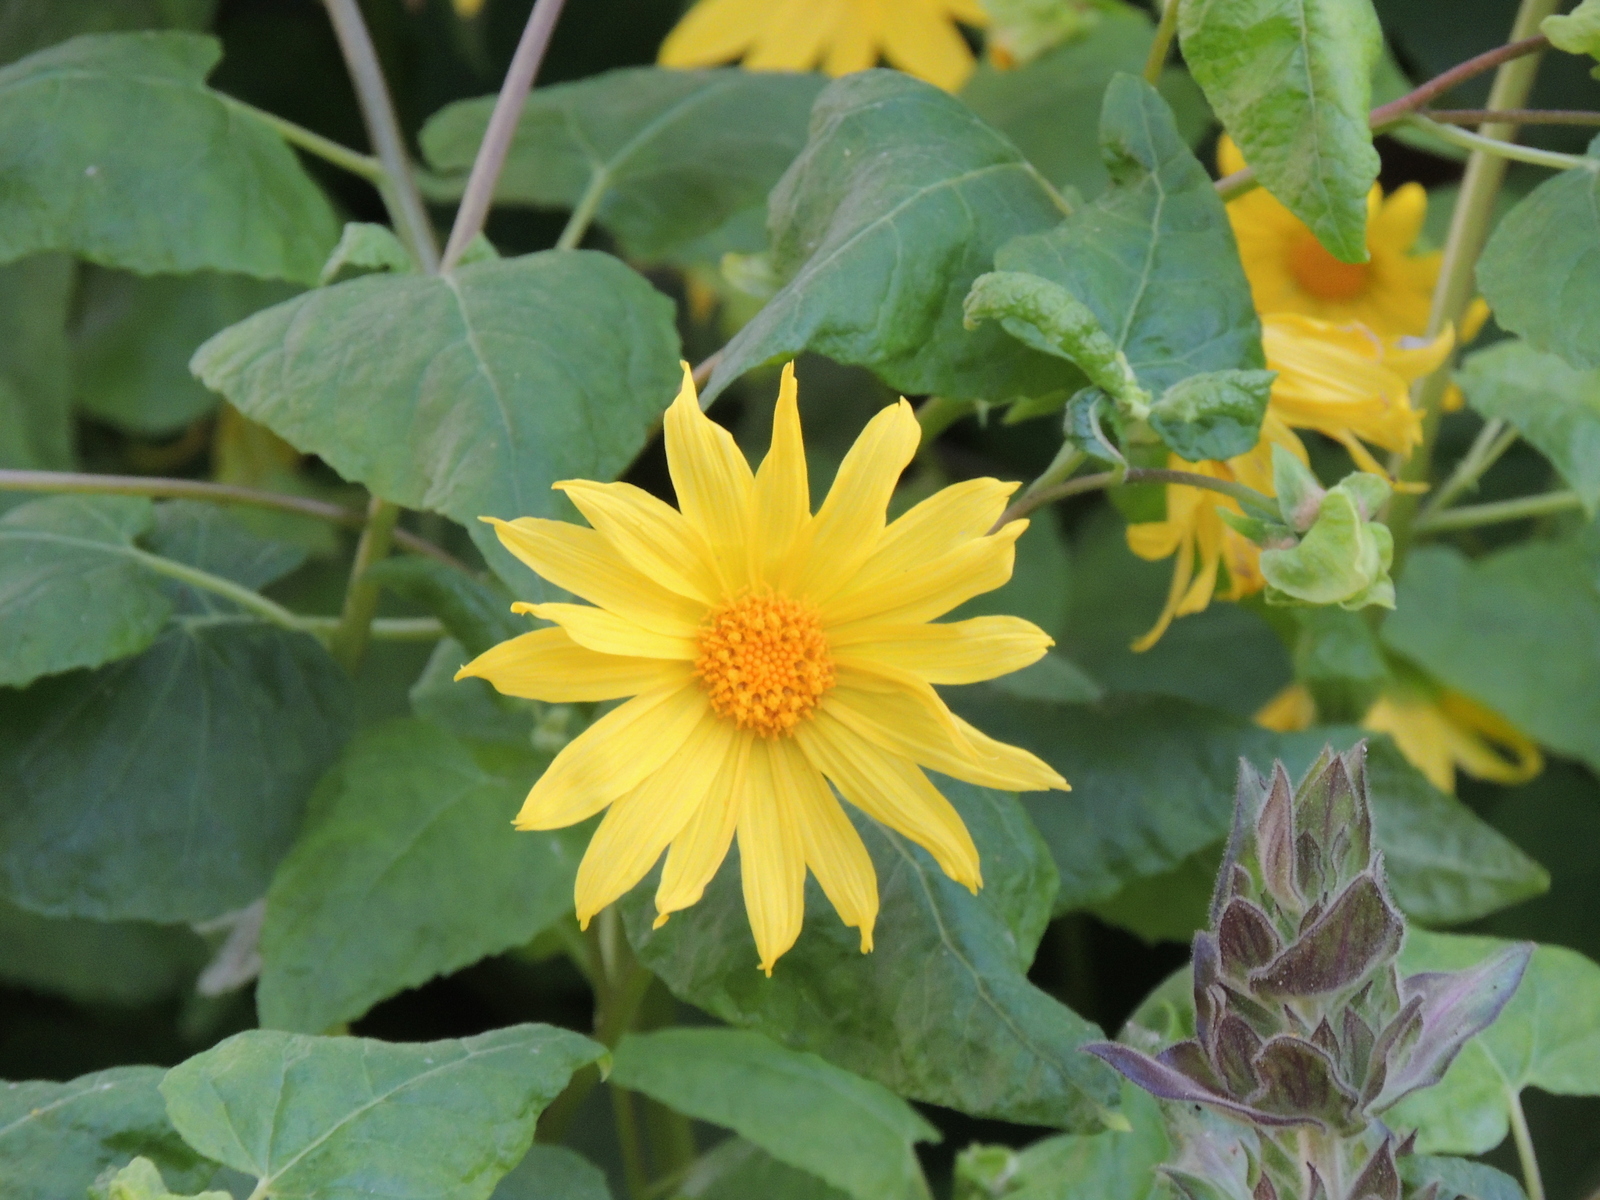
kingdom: Plantae
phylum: Tracheophyta
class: Magnoliopsida
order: Asterales
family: Asteraceae
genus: Venegasia
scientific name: Venegasia carpesioides
